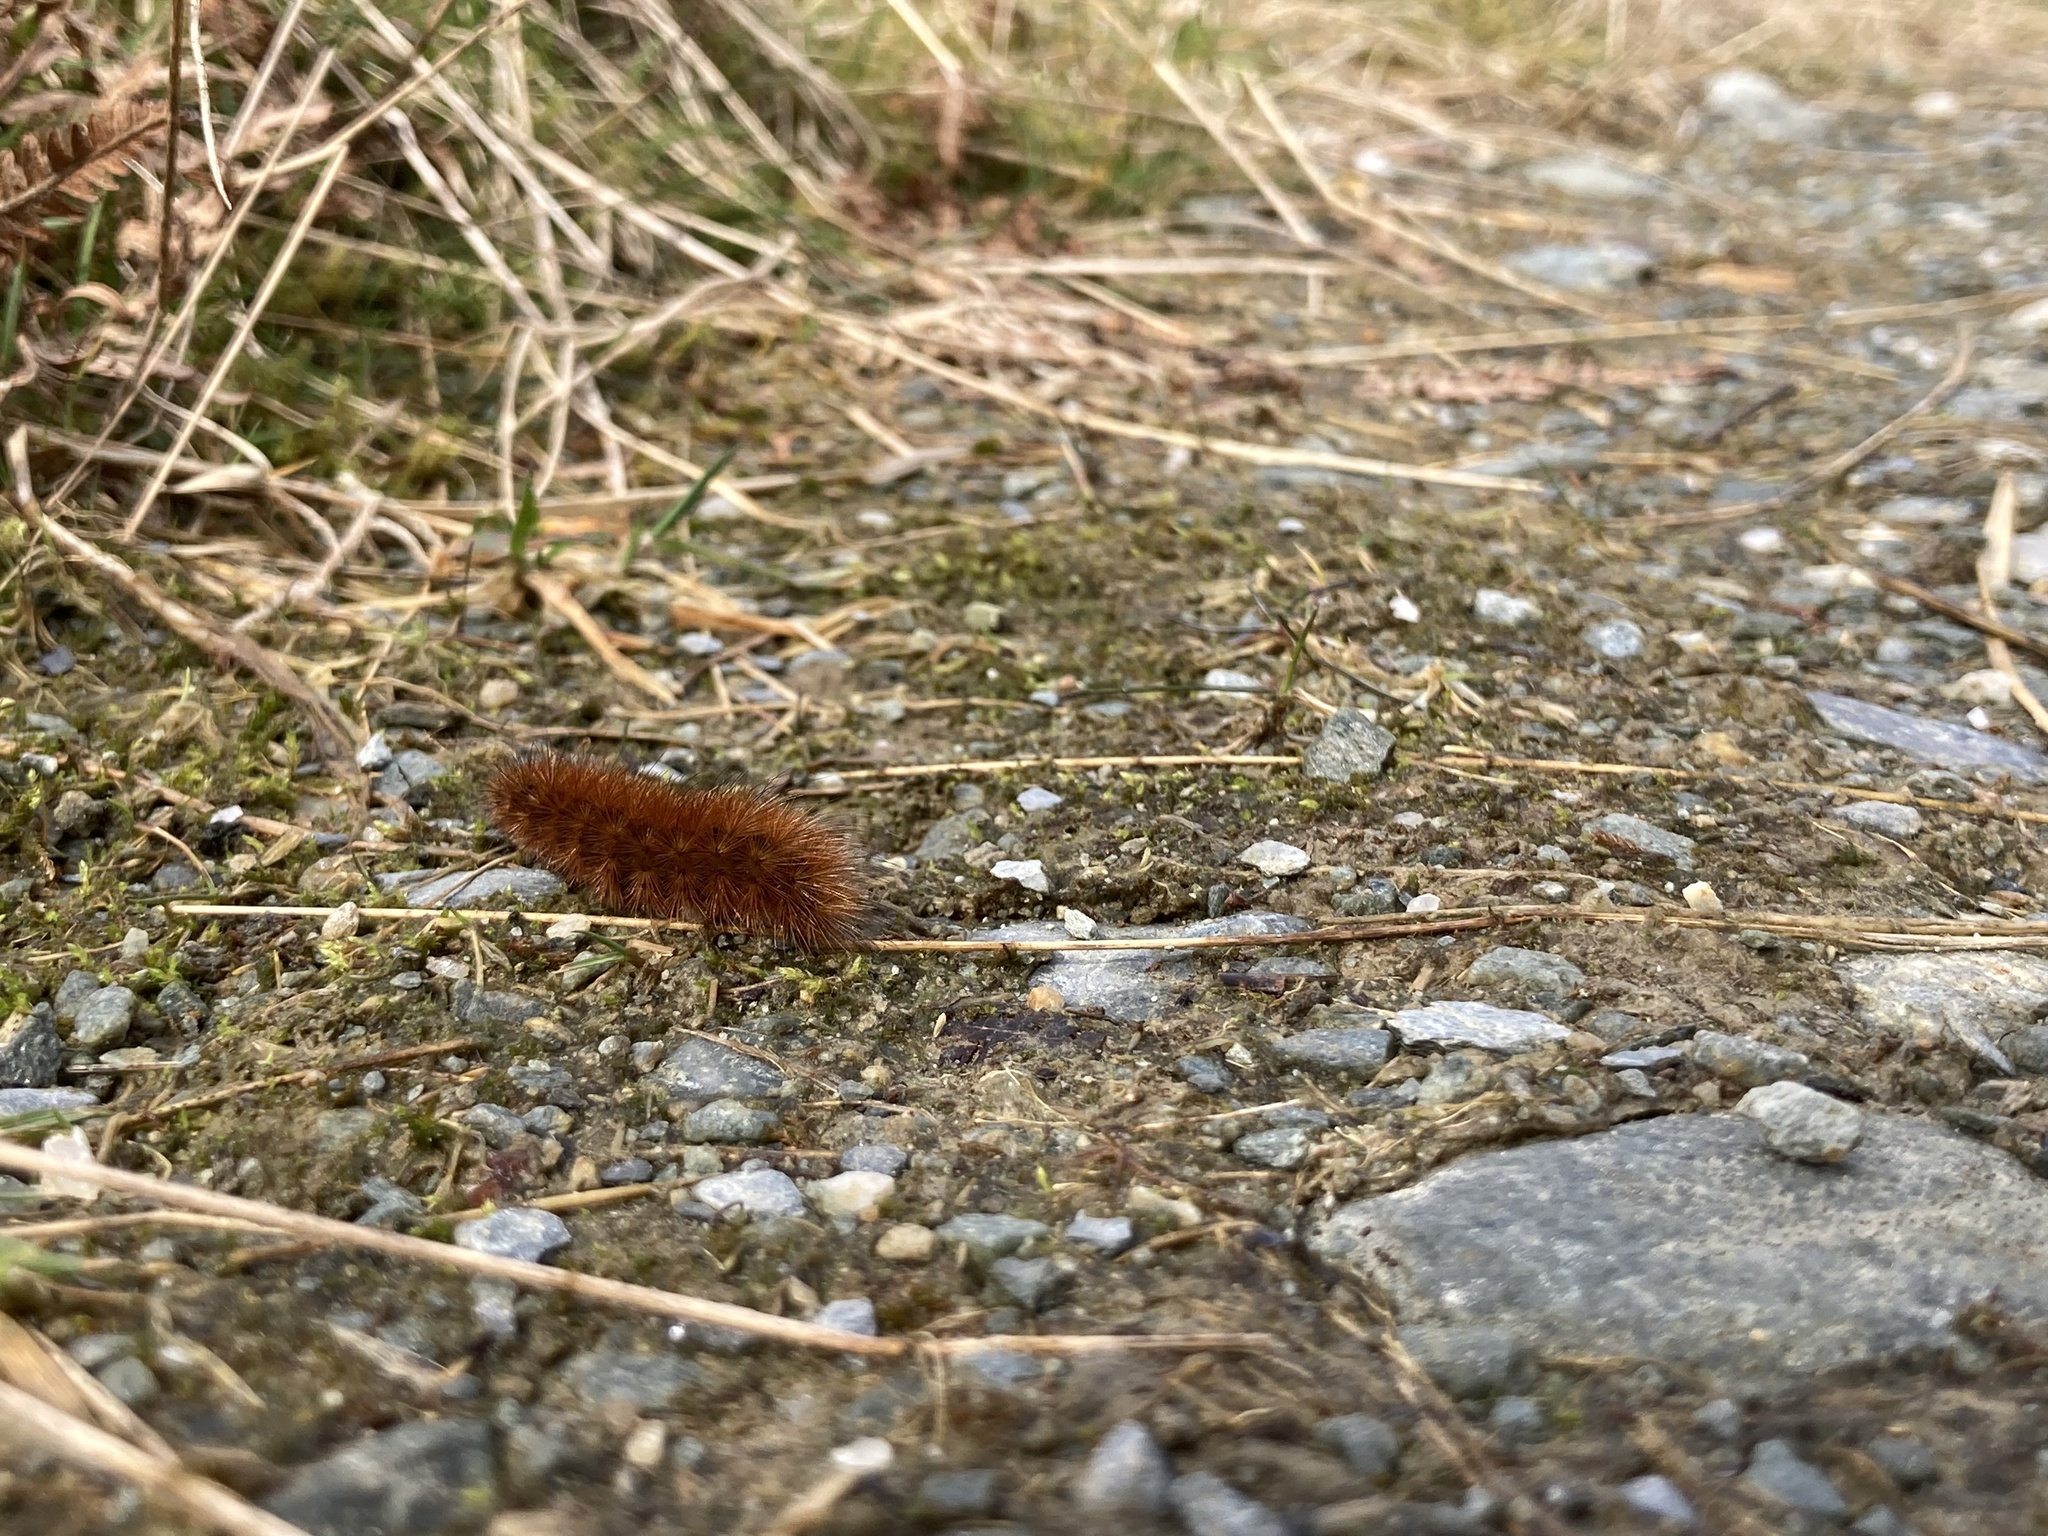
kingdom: Animalia
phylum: Arthropoda
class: Insecta
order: Lepidoptera
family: Erebidae
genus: Phragmatobia
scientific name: Phragmatobia fuliginosa
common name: Ruby tiger
